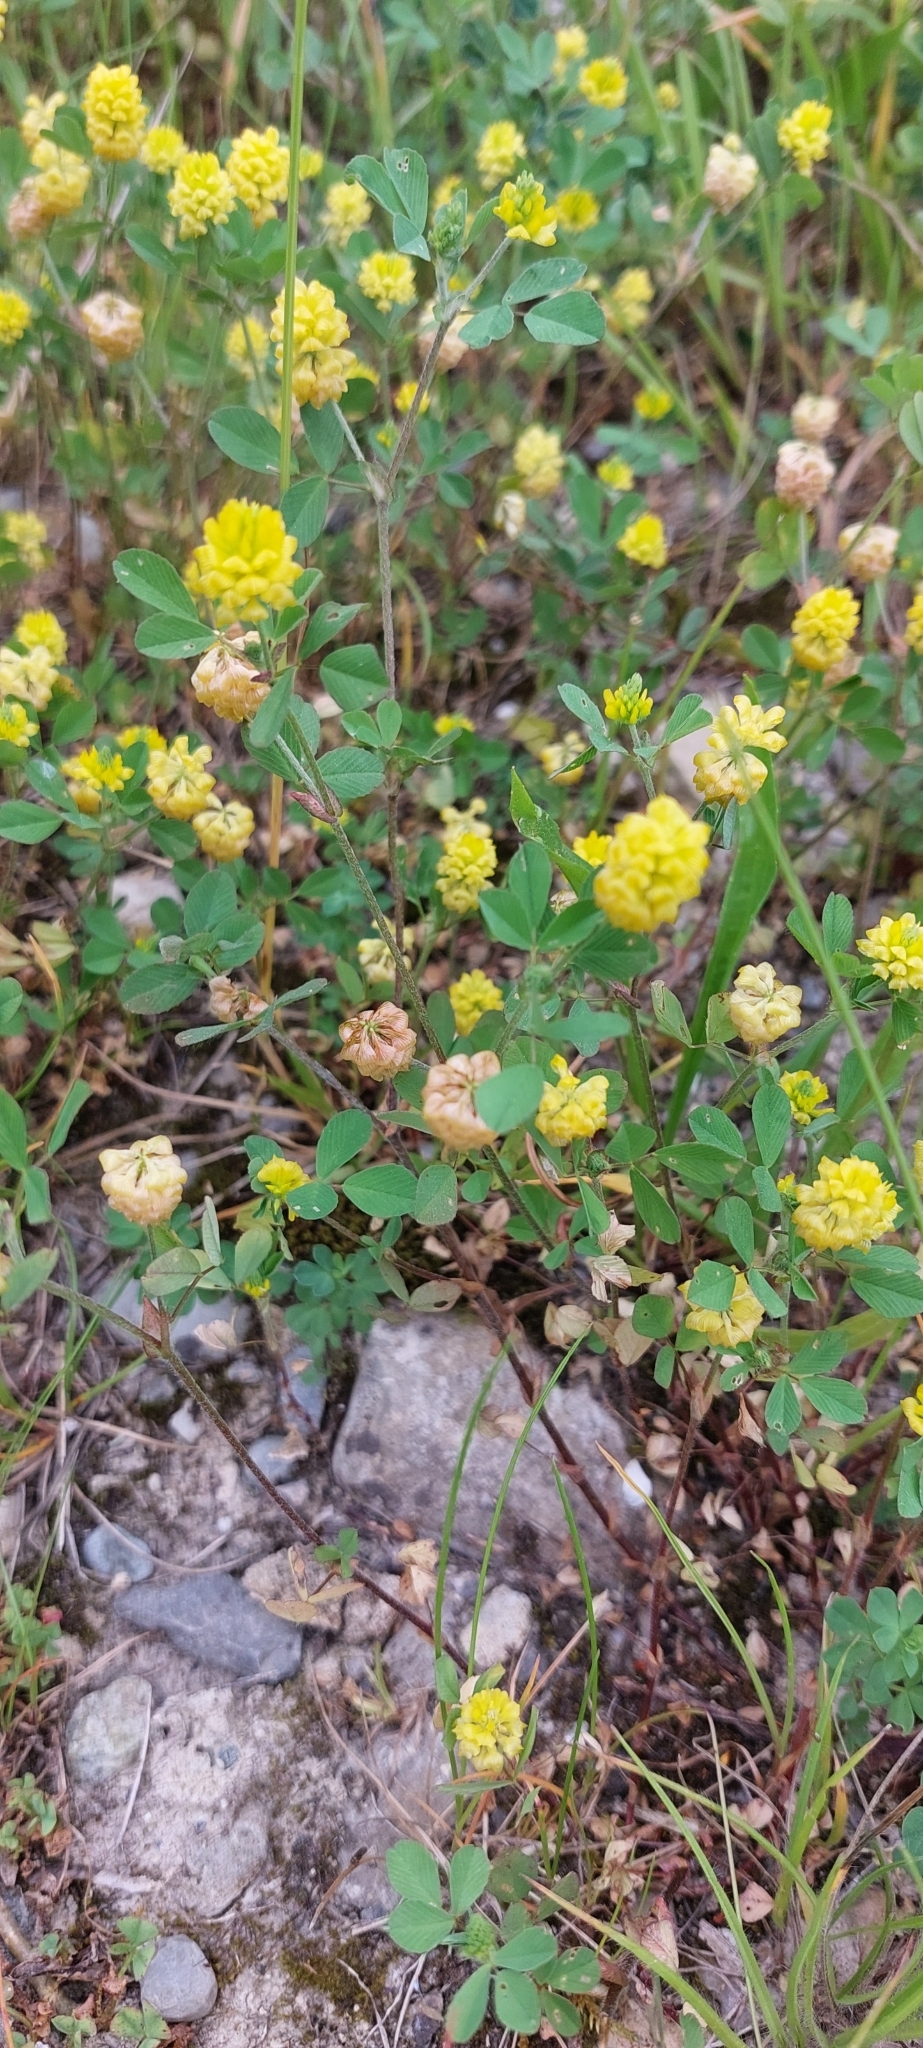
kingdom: Plantae
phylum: Tracheophyta
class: Magnoliopsida
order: Fabales
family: Fabaceae
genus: Trifolium
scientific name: Trifolium campestre
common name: Field clover
